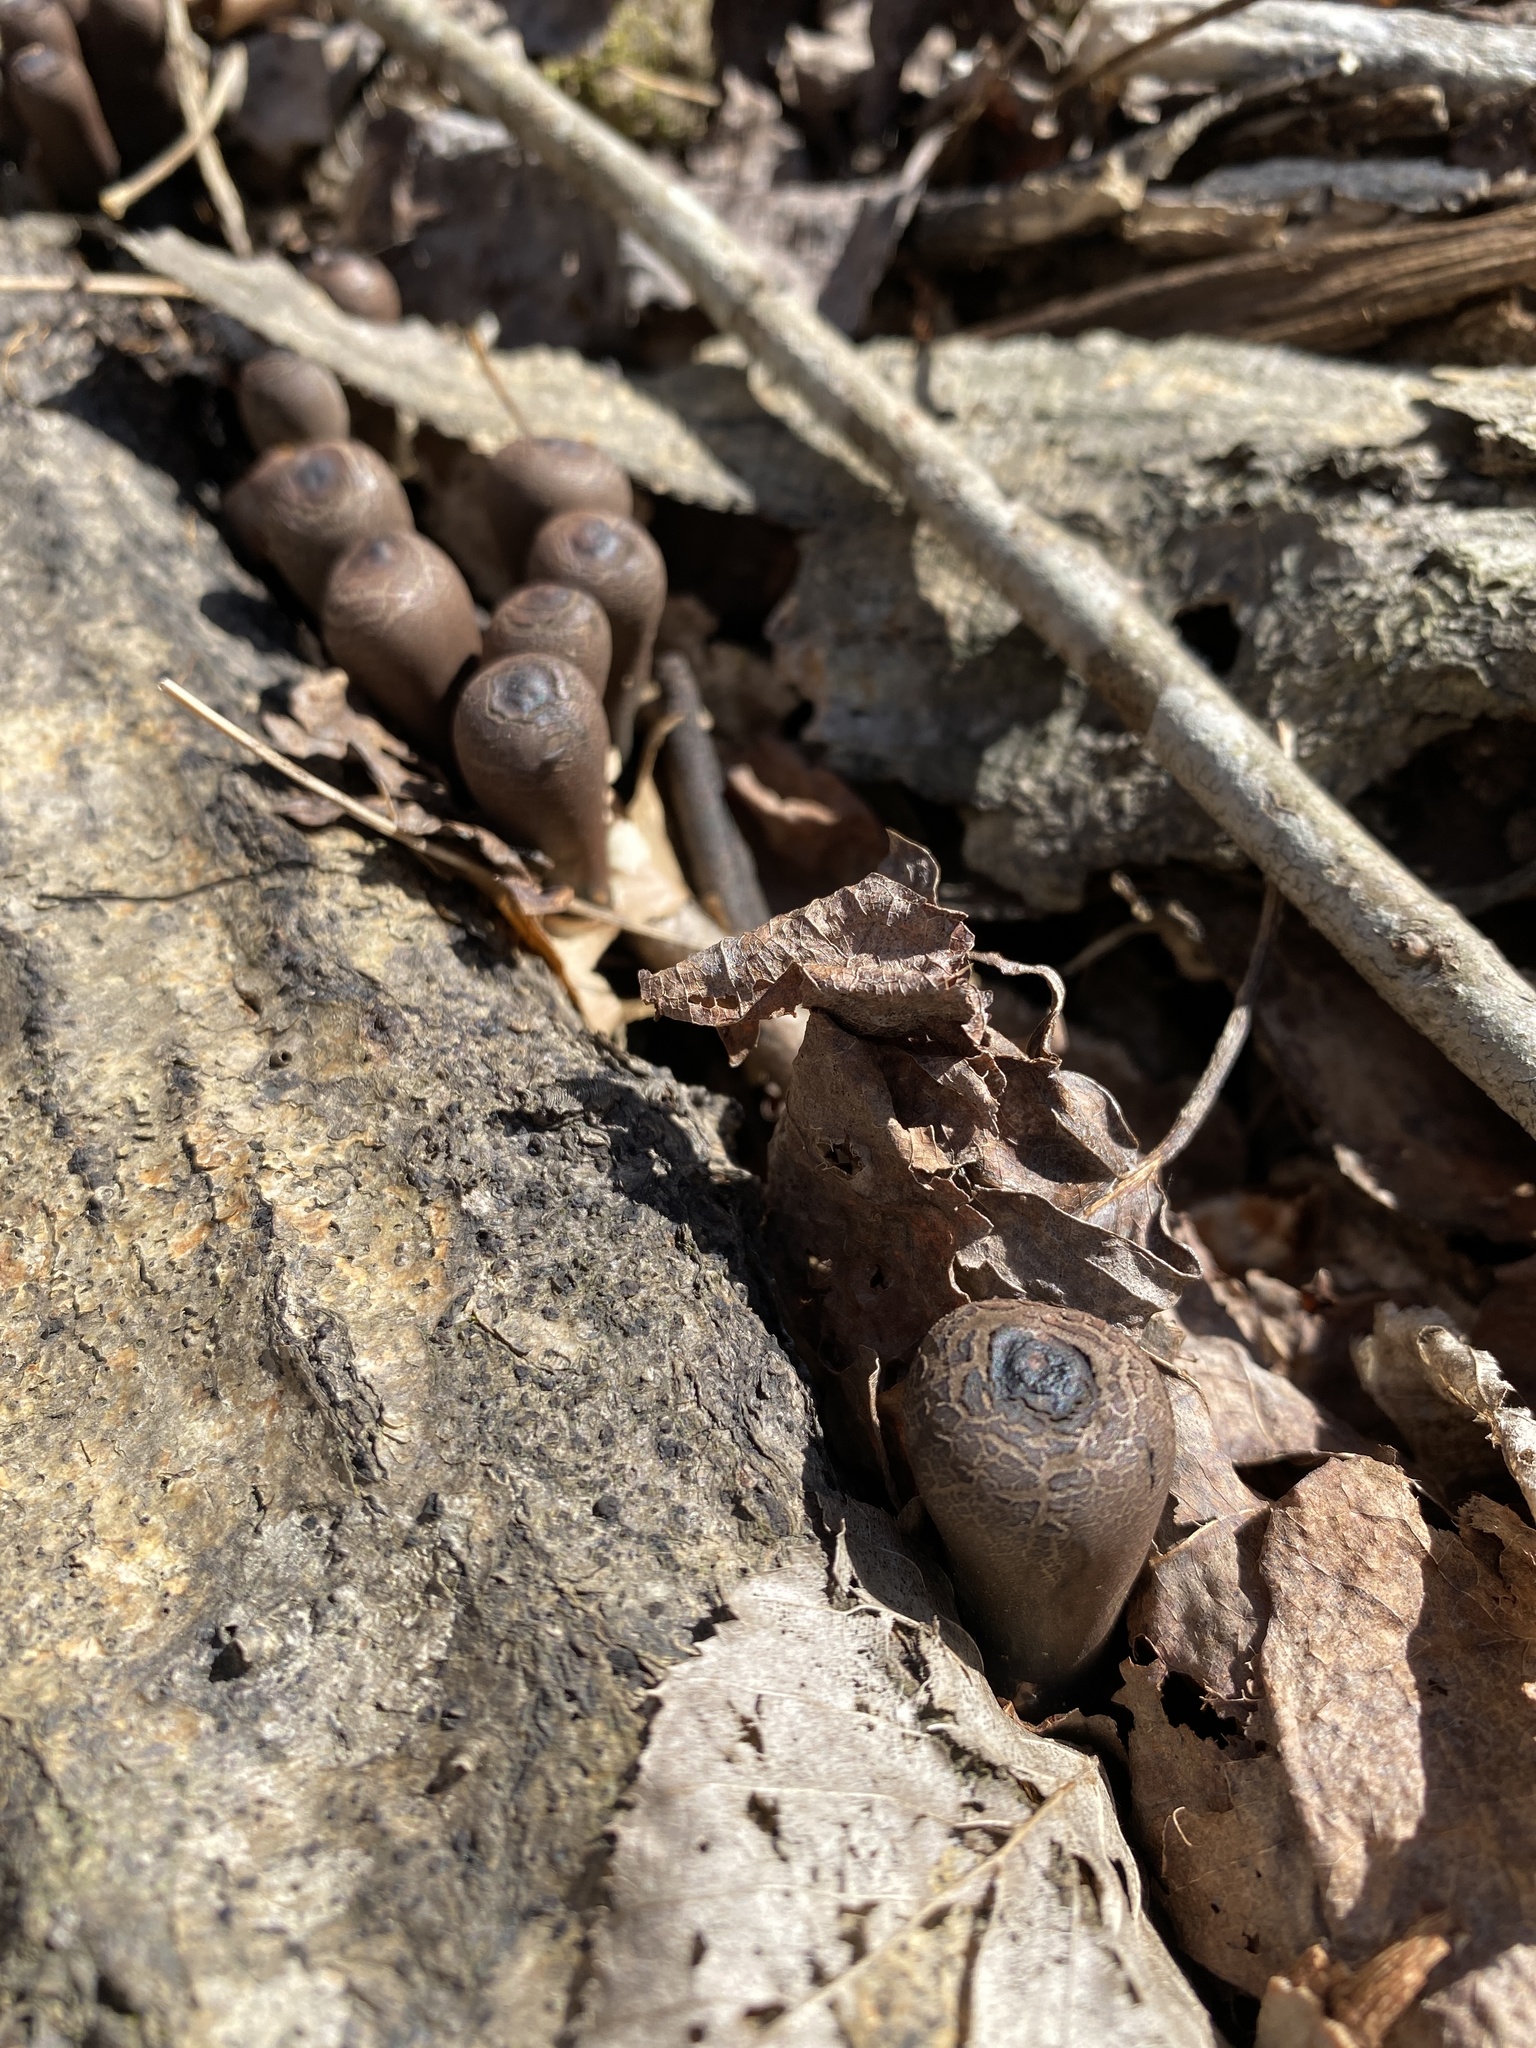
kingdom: Fungi
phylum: Ascomycota
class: Pezizomycetes
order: Pezizales
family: Sarcosomataceae
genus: Urnula
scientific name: Urnula craterium
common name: Devil's urn
